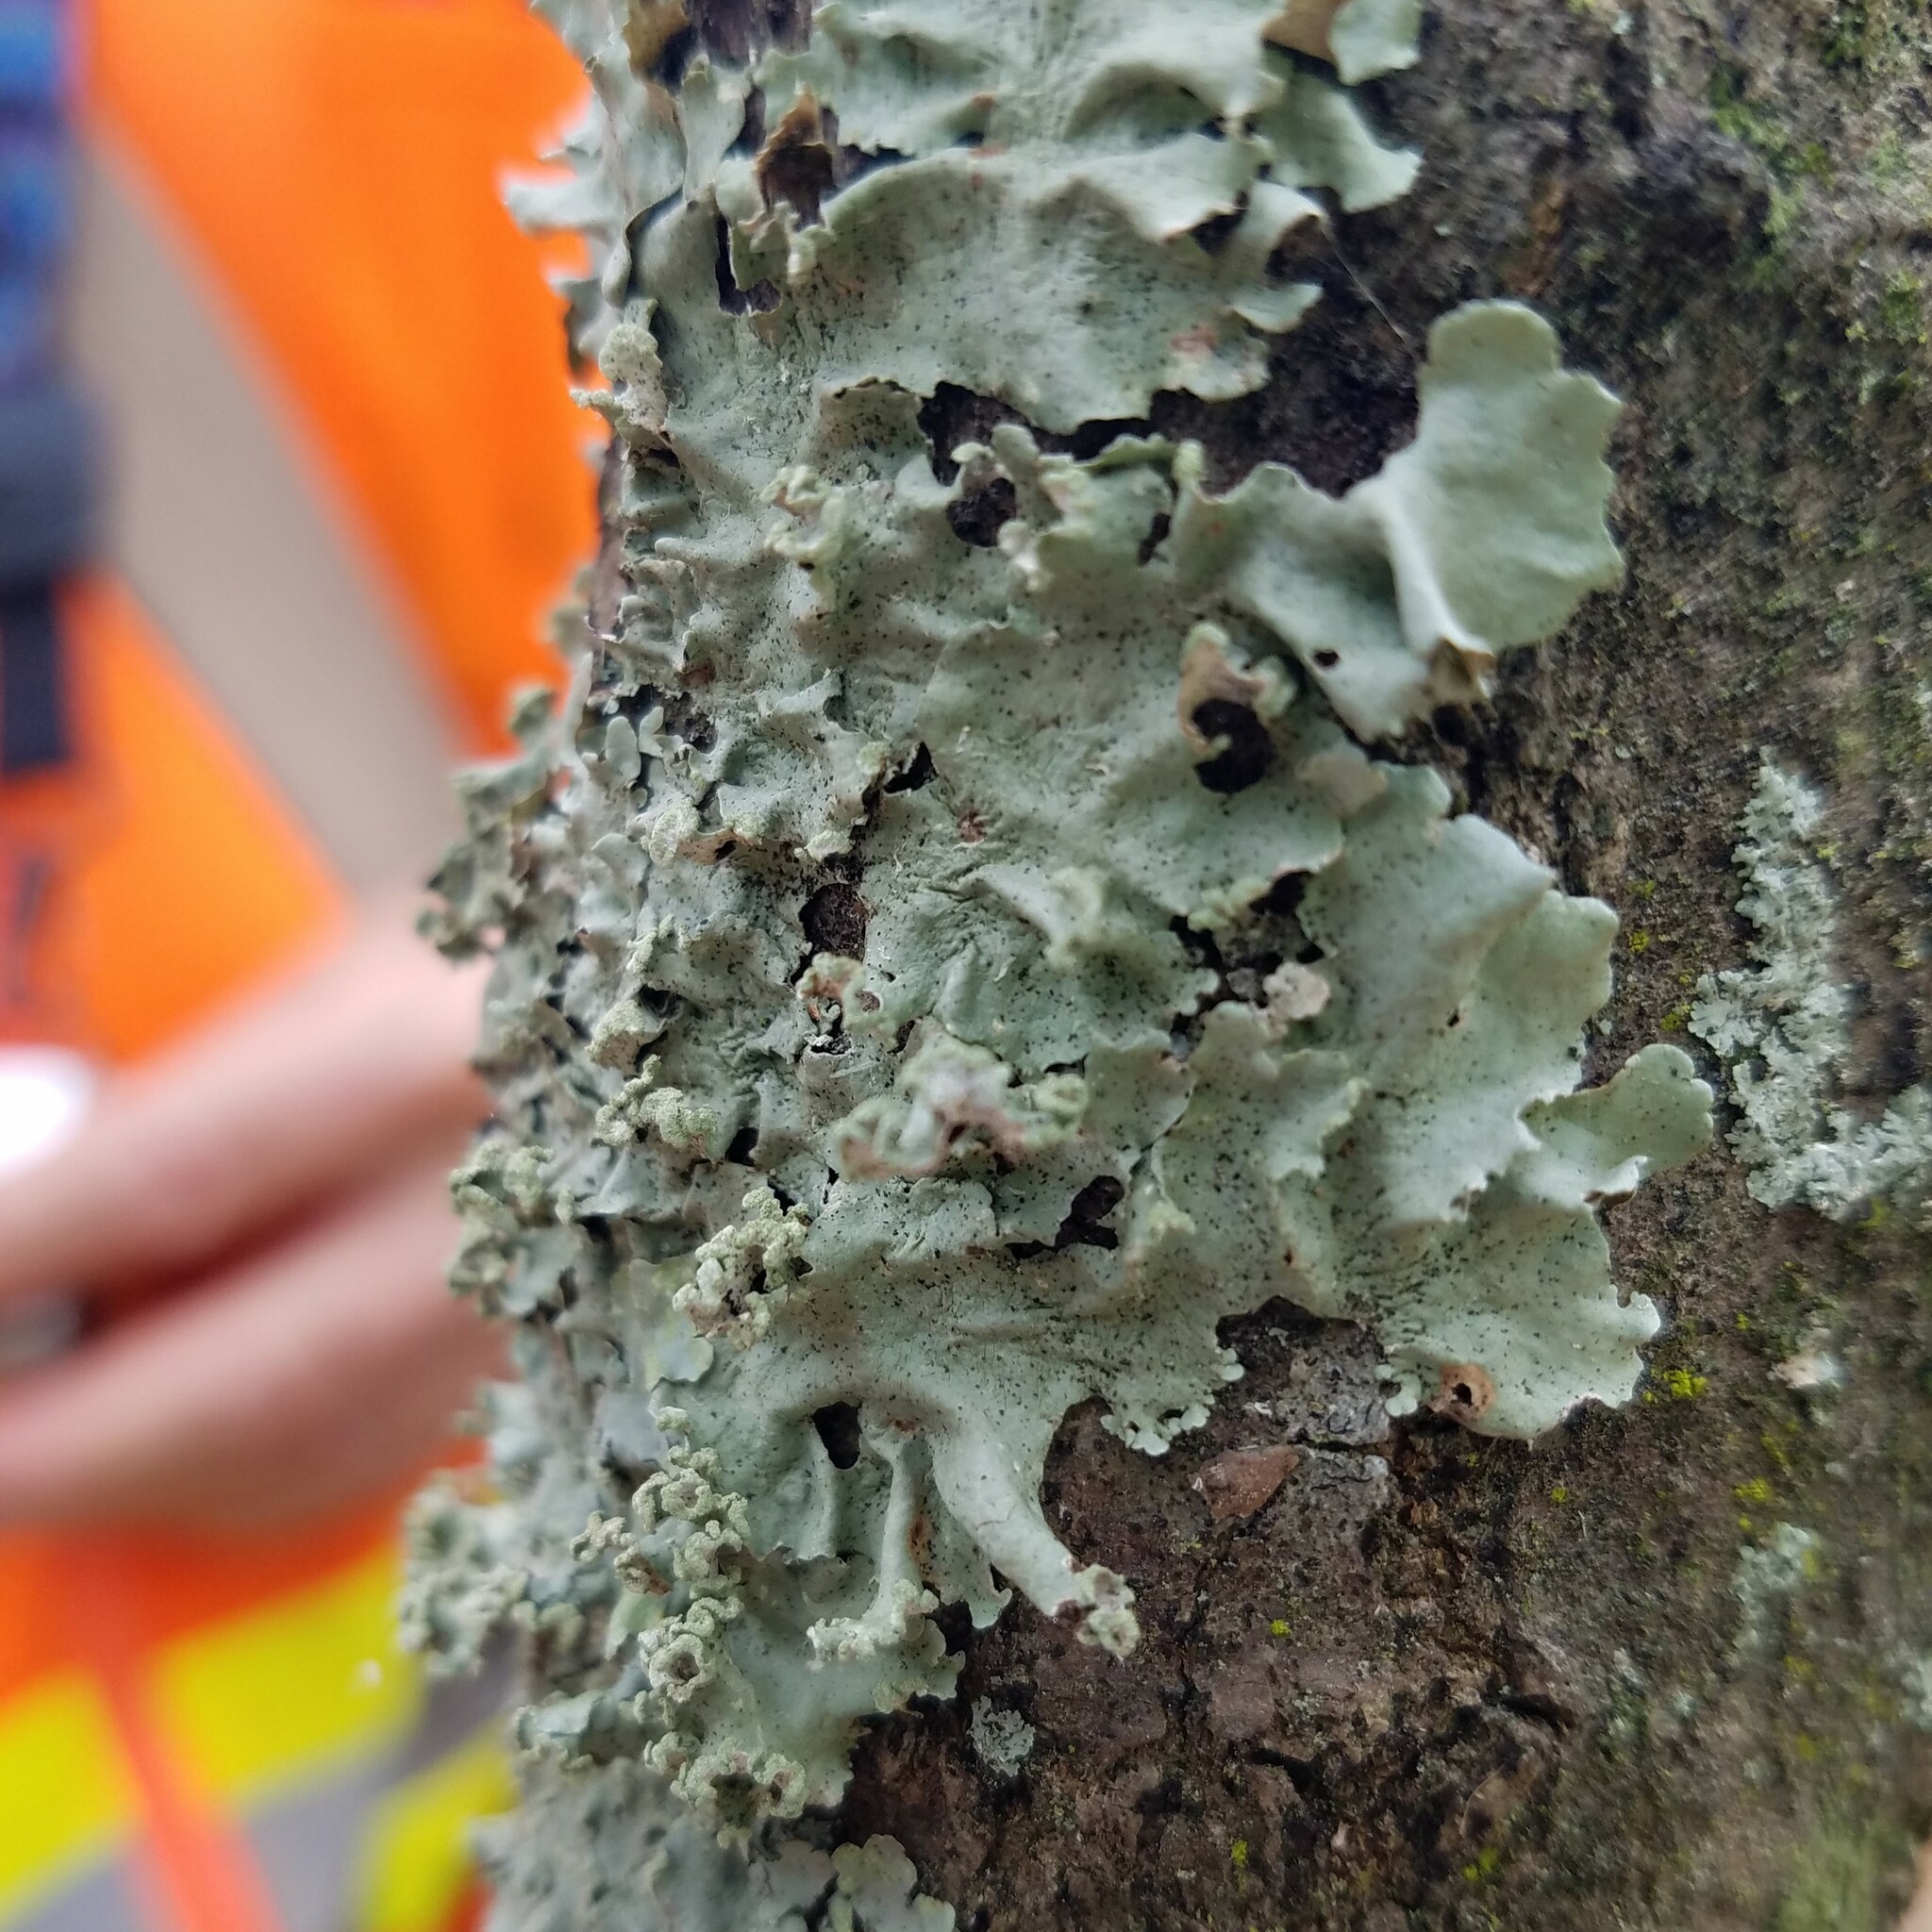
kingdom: Fungi
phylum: Ascomycota
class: Lecanoromycetes
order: Lecanorales
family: Parmeliaceae
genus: Parmotrema
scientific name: Parmotrema austrosinense
